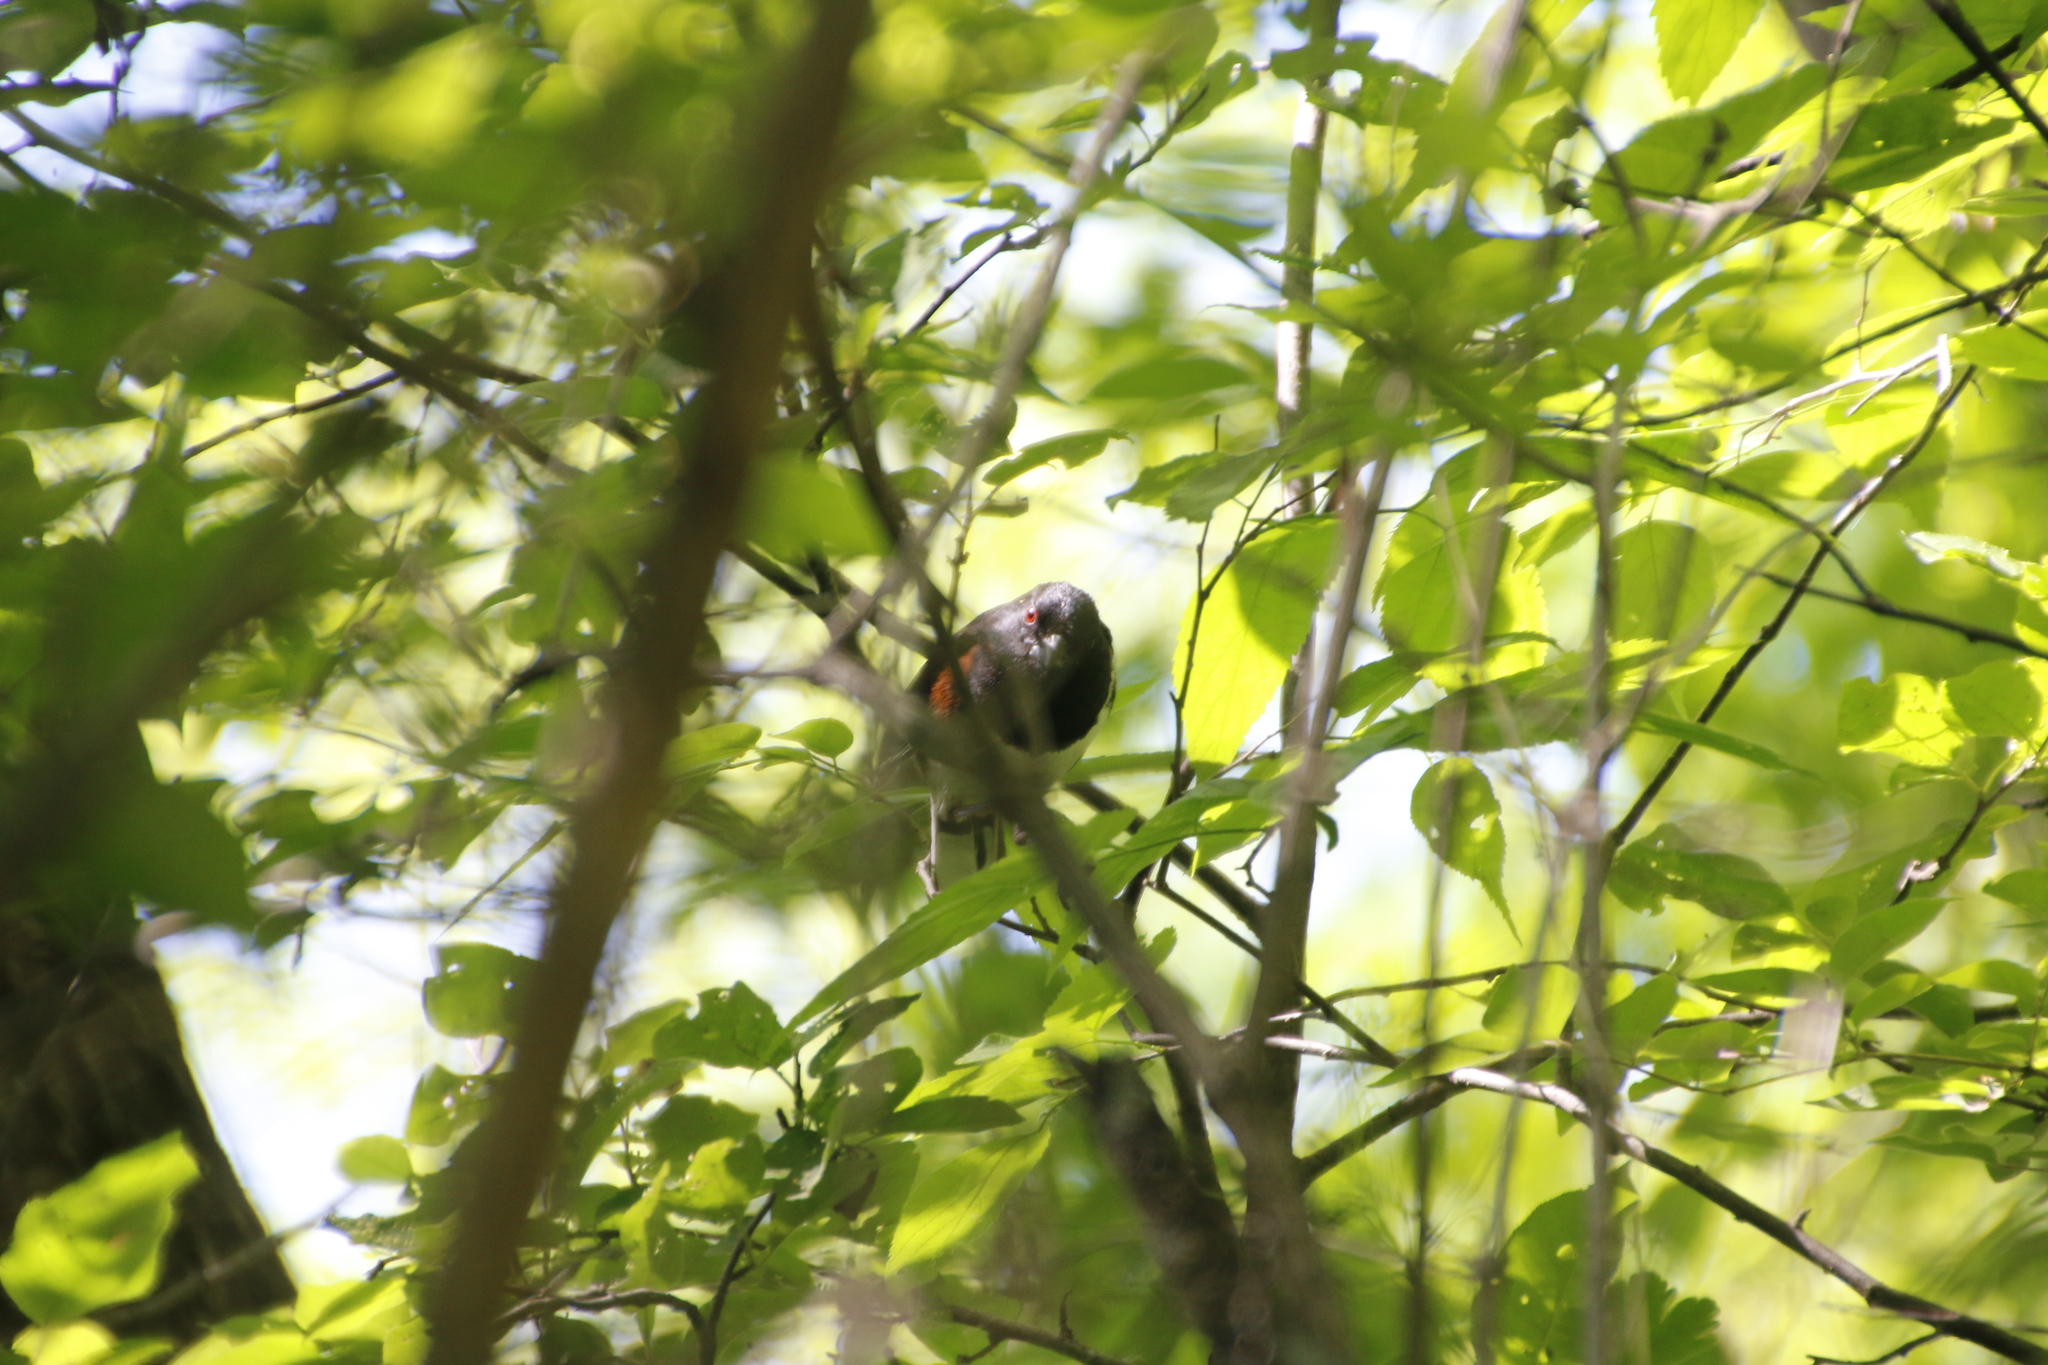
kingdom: Animalia
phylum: Chordata
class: Aves
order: Passeriformes
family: Passerellidae
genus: Pipilo
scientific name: Pipilo erythrophthalmus
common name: Eastern towhee
